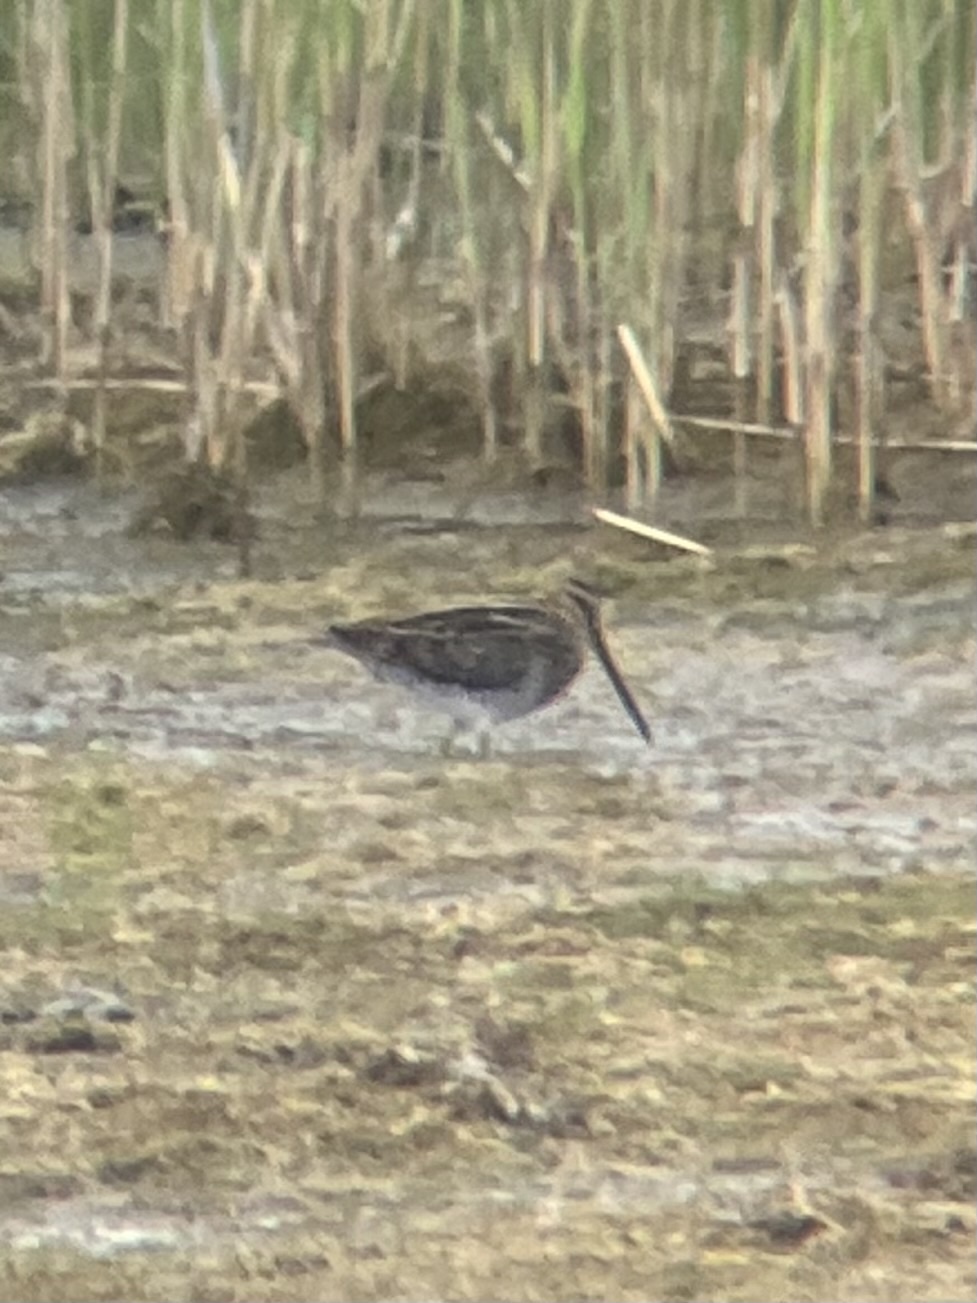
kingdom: Animalia
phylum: Chordata
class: Aves
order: Charadriiformes
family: Scolopacidae
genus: Gallinago
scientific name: Gallinago delicata
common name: Wilson's snipe
